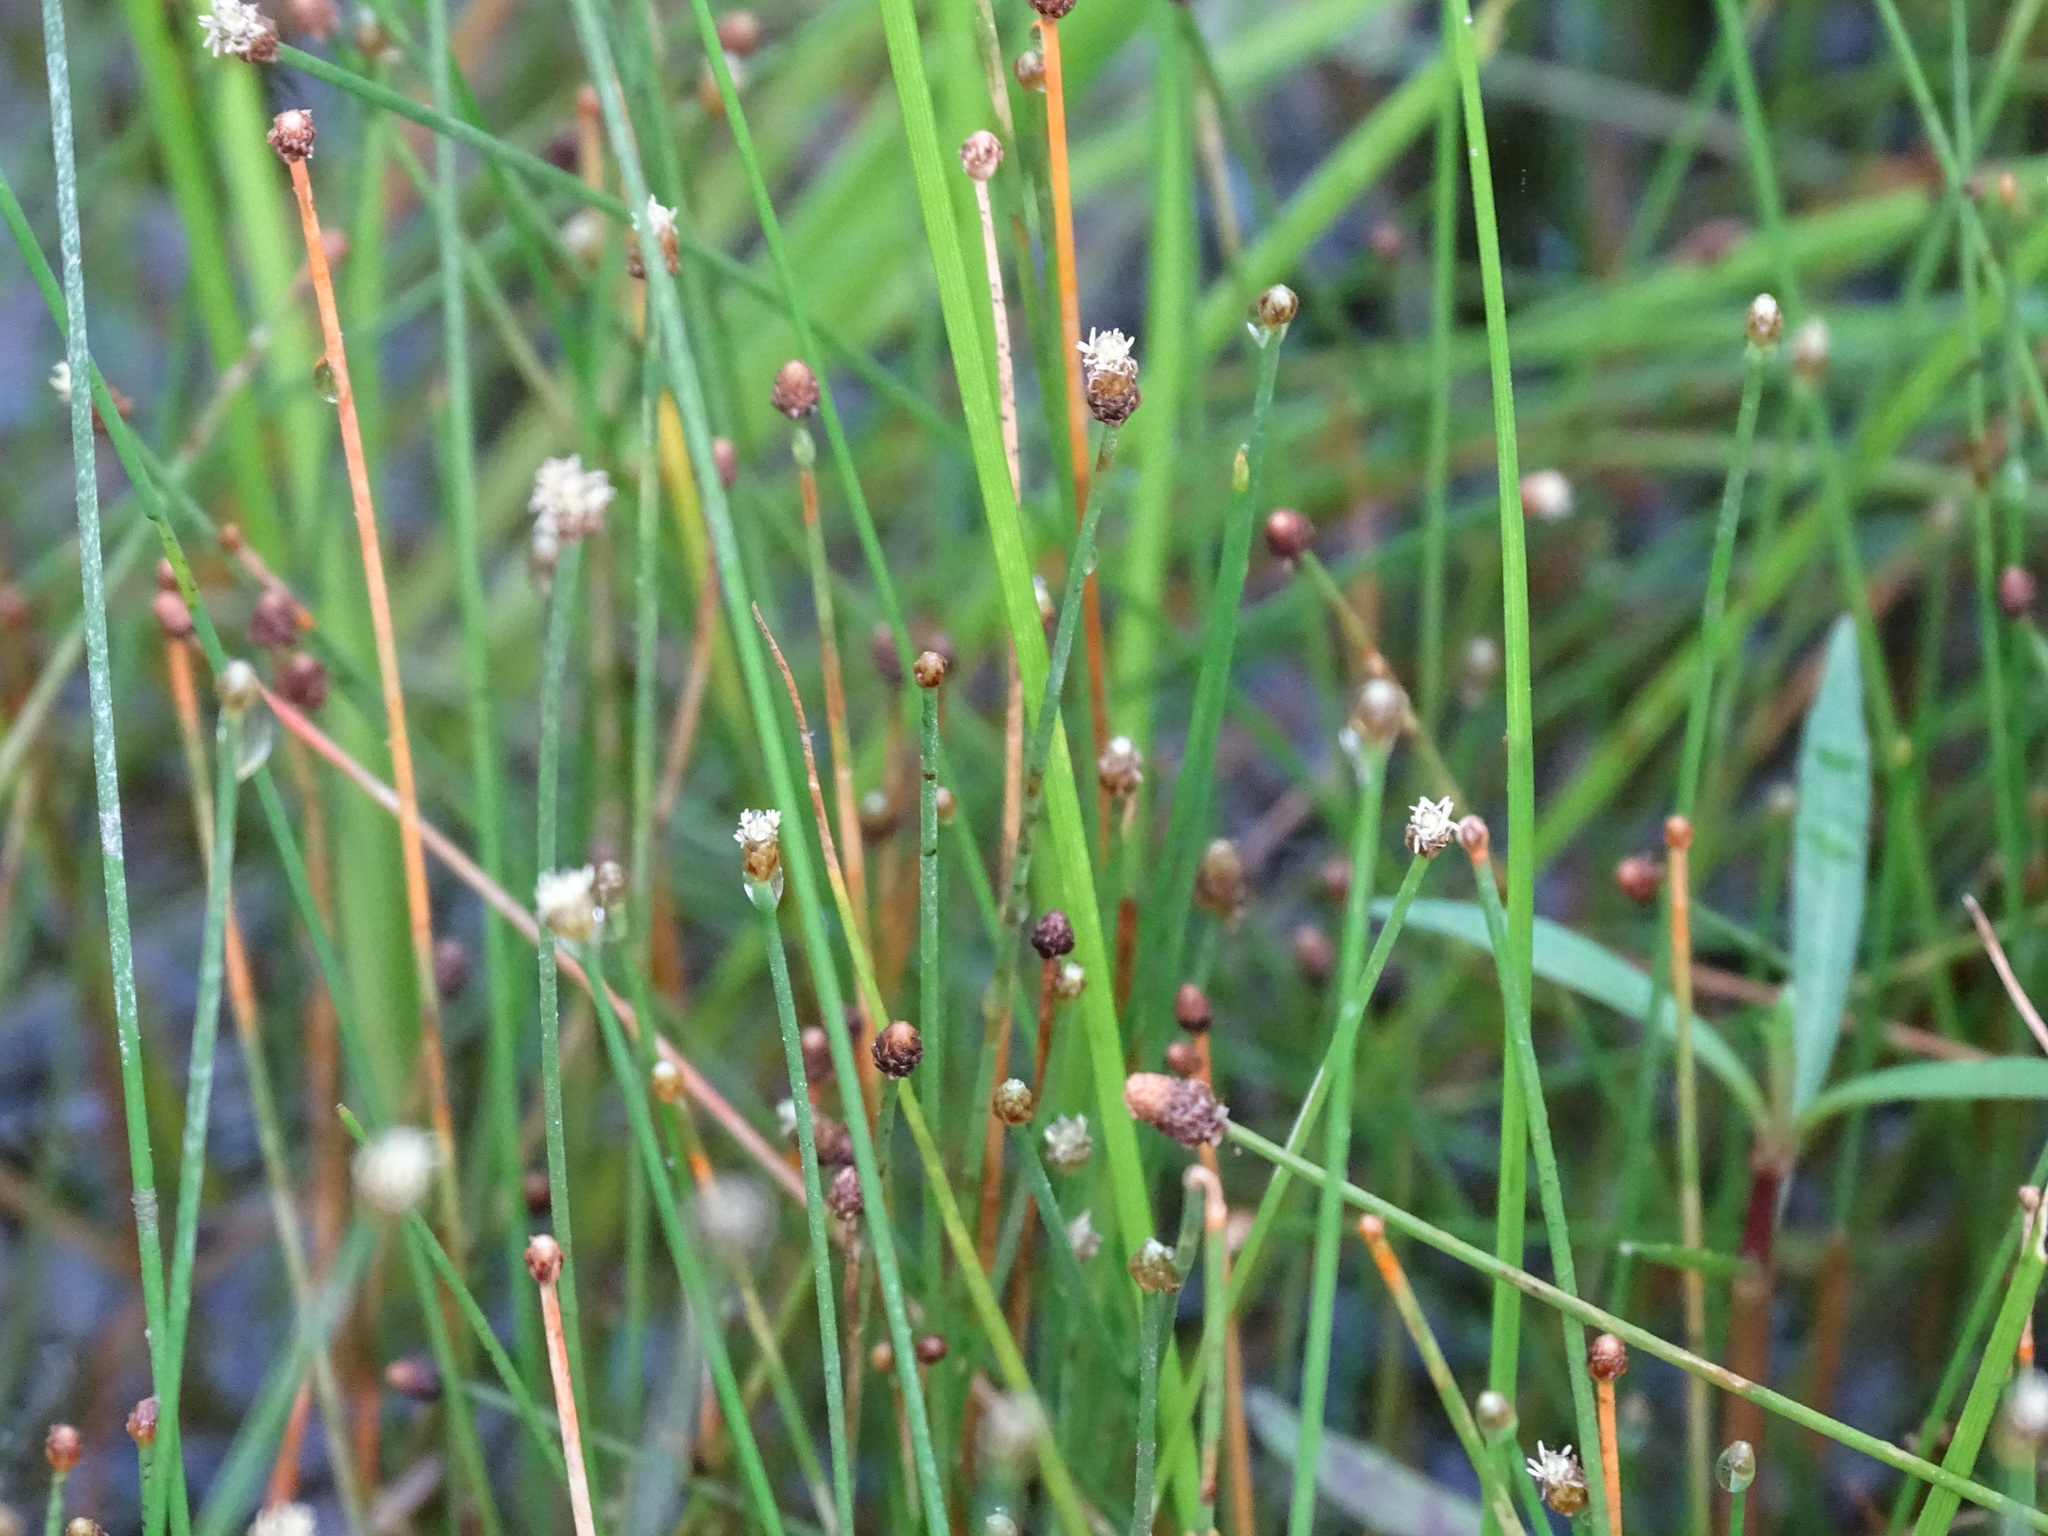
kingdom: Plantae
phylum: Tracheophyta
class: Liliopsida
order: Poales
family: Cyperaceae
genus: Eleocharis
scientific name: Eleocharis geniculata
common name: Canada spikesedge
